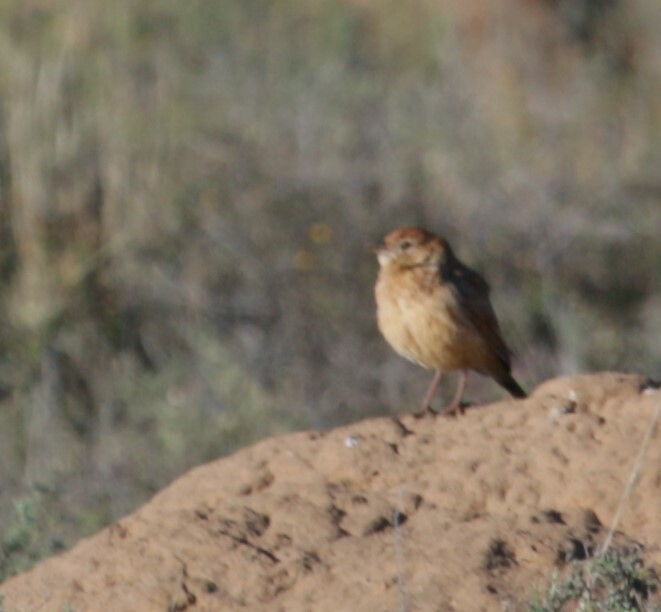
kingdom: Animalia
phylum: Chordata
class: Aves
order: Passeriformes
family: Alaudidae
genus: Mirafra
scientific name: Mirafra fasciolata
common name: Eastern clapper lark
